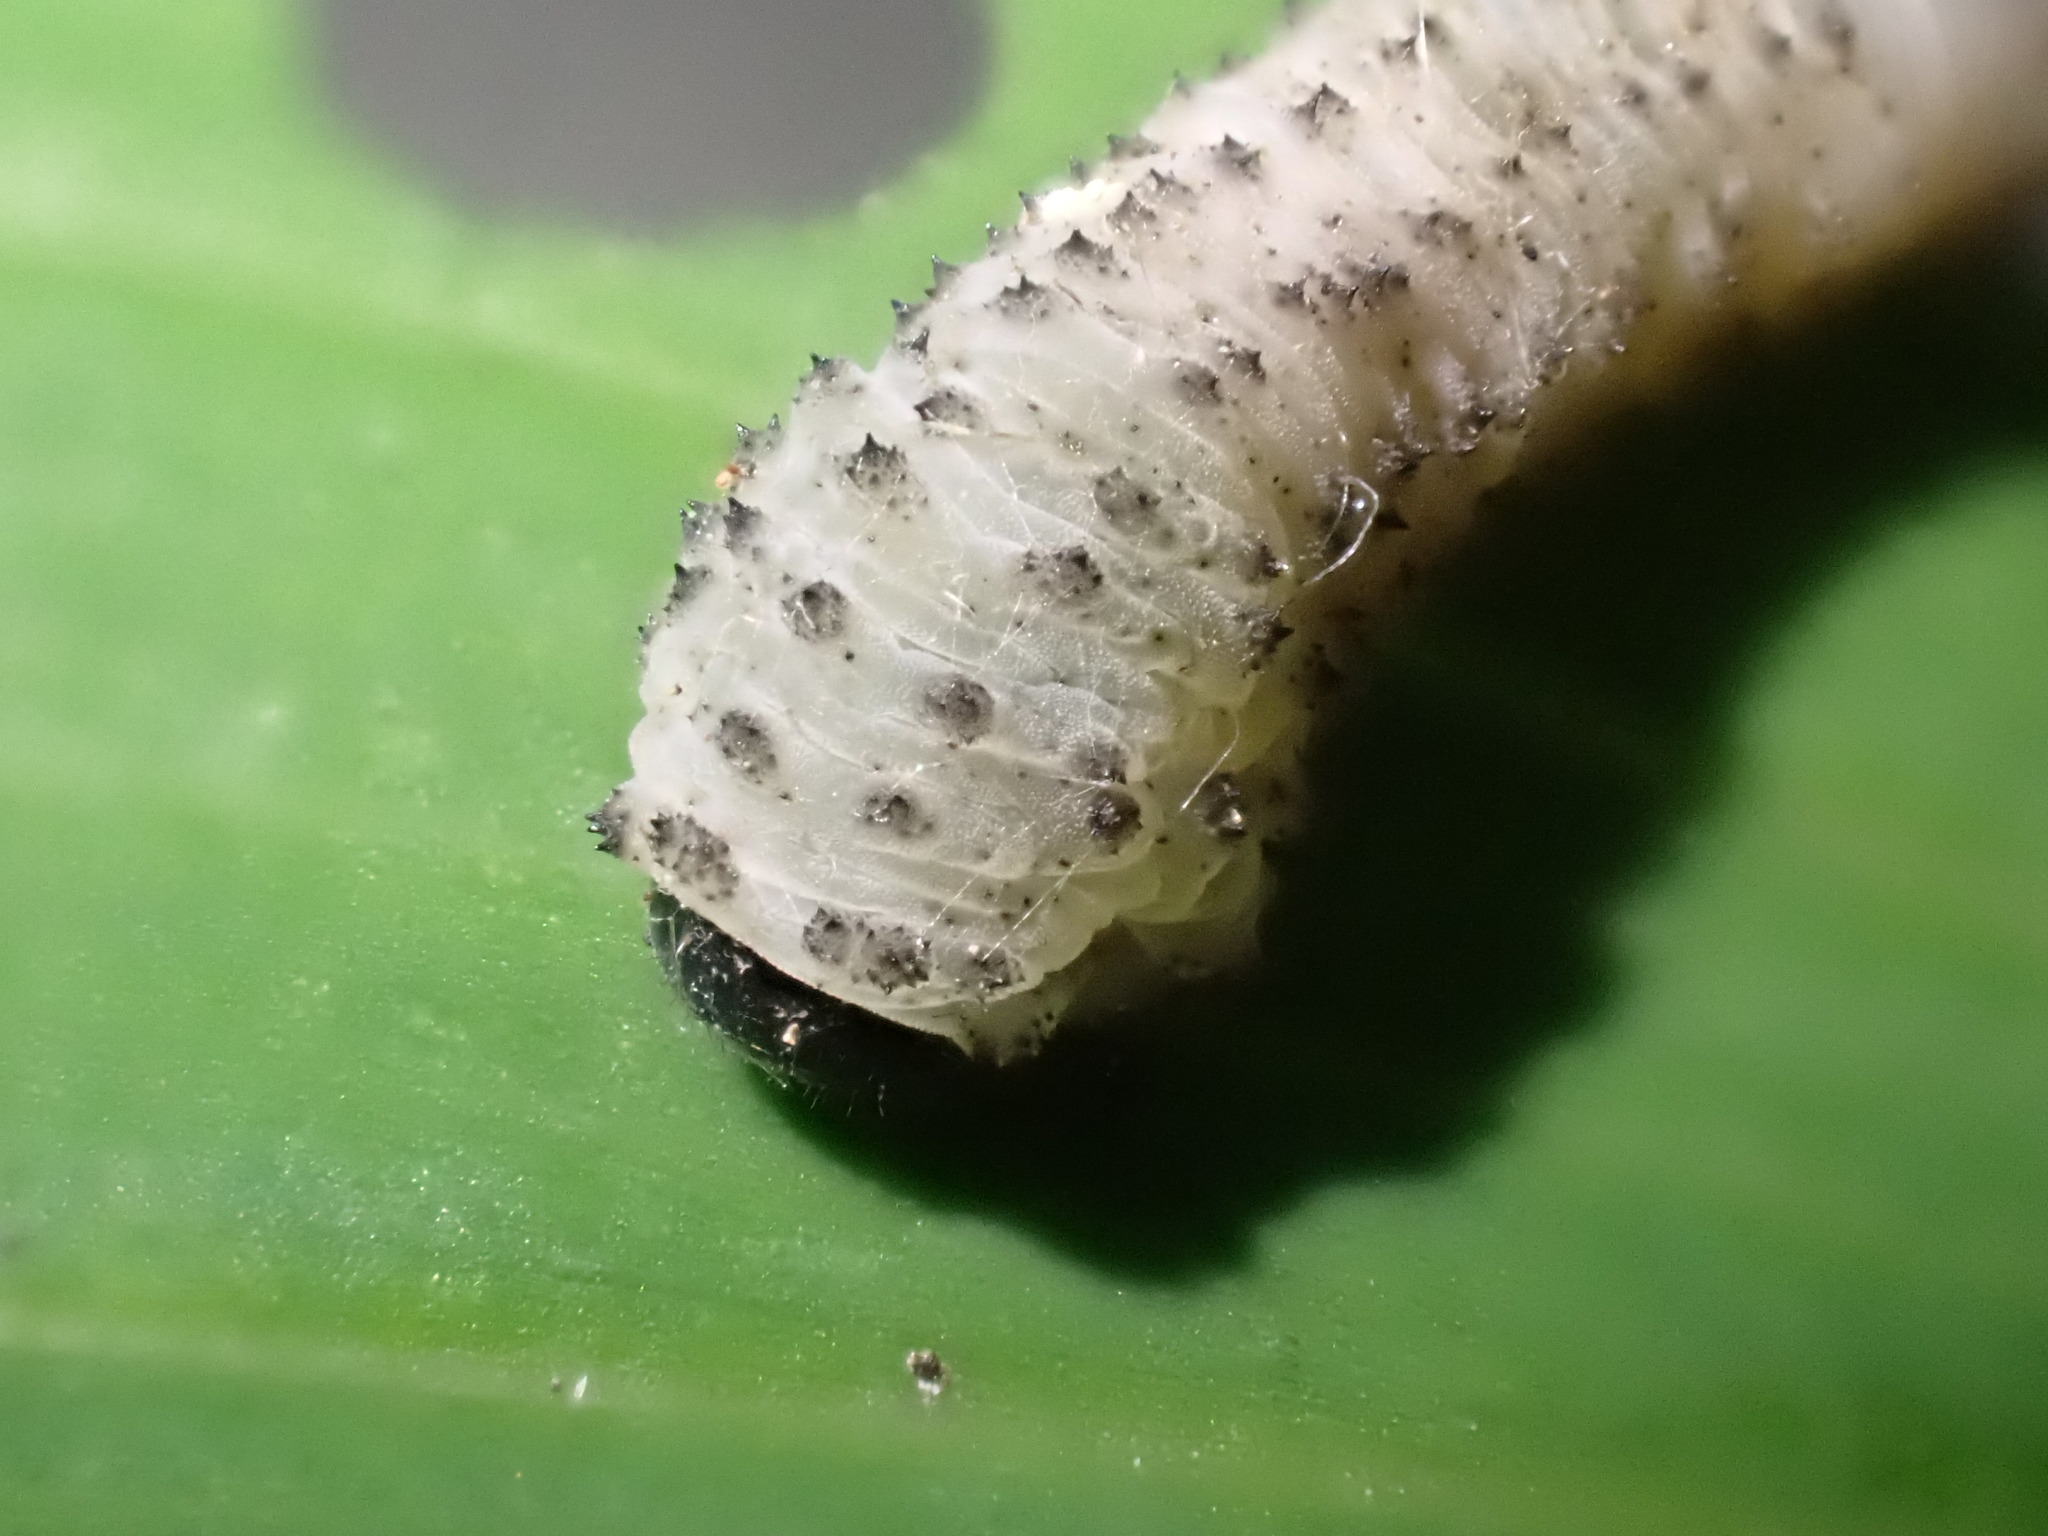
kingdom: Animalia
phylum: Arthropoda
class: Insecta
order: Hymenoptera
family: Tenthredinidae
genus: Phymatocera
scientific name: Phymatocera aterrima
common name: Solomon's-seal sawfly
